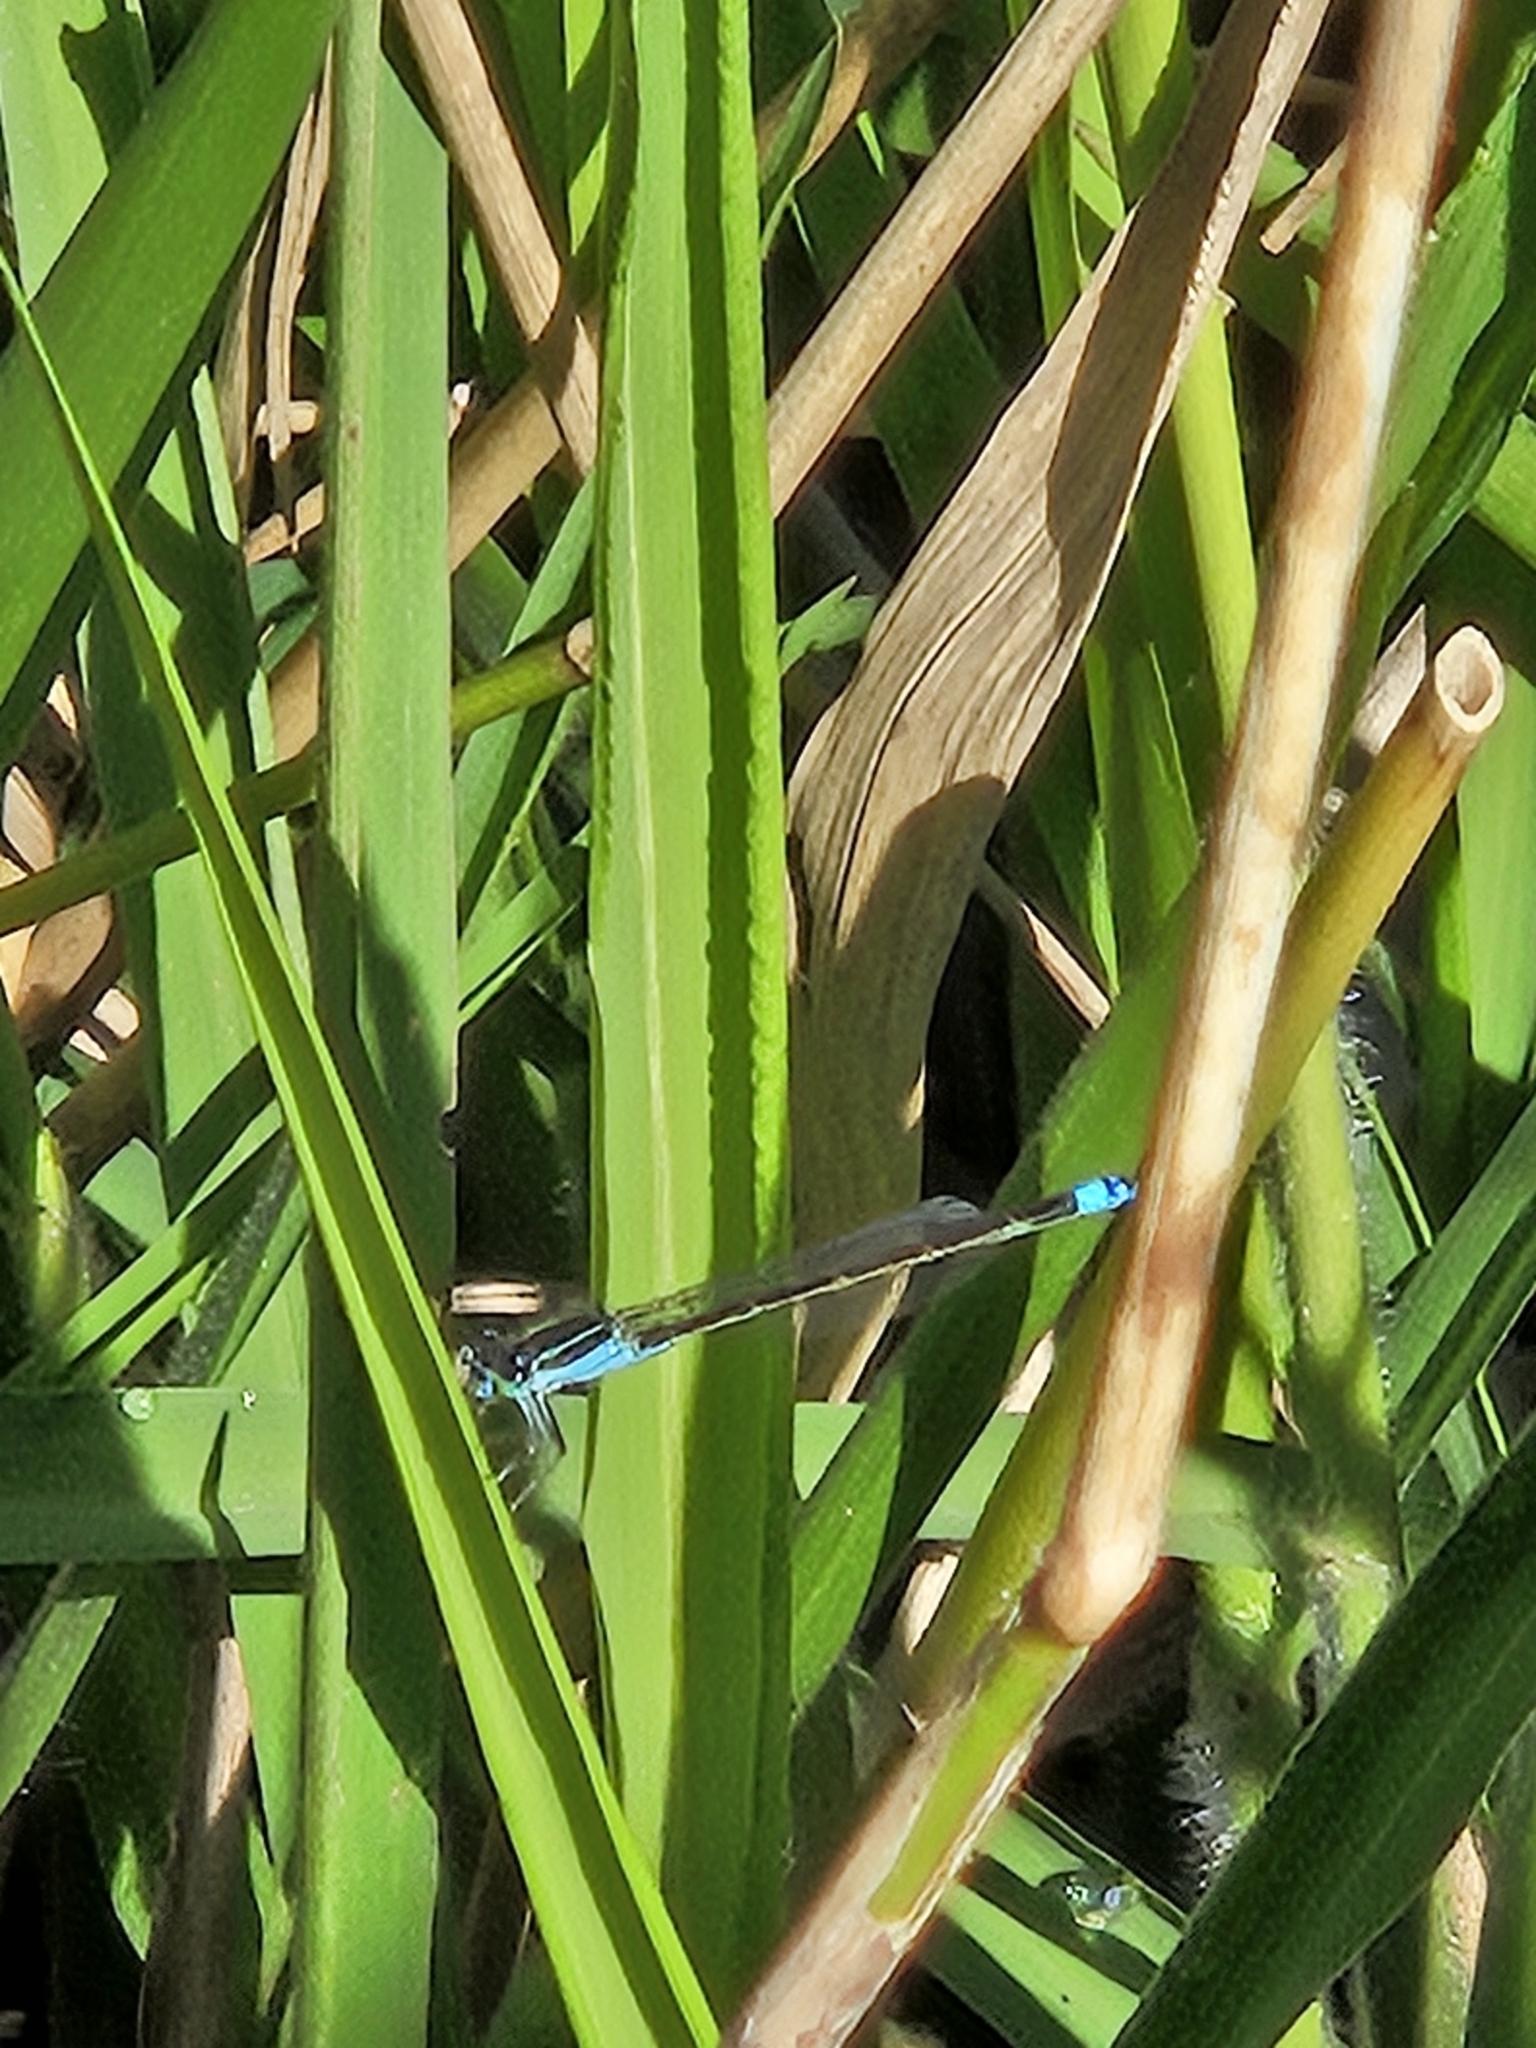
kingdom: Animalia
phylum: Arthropoda
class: Insecta
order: Odonata
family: Coenagrionidae
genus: Ischnura
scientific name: Ischnura ramburii
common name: Rambur's forktail
